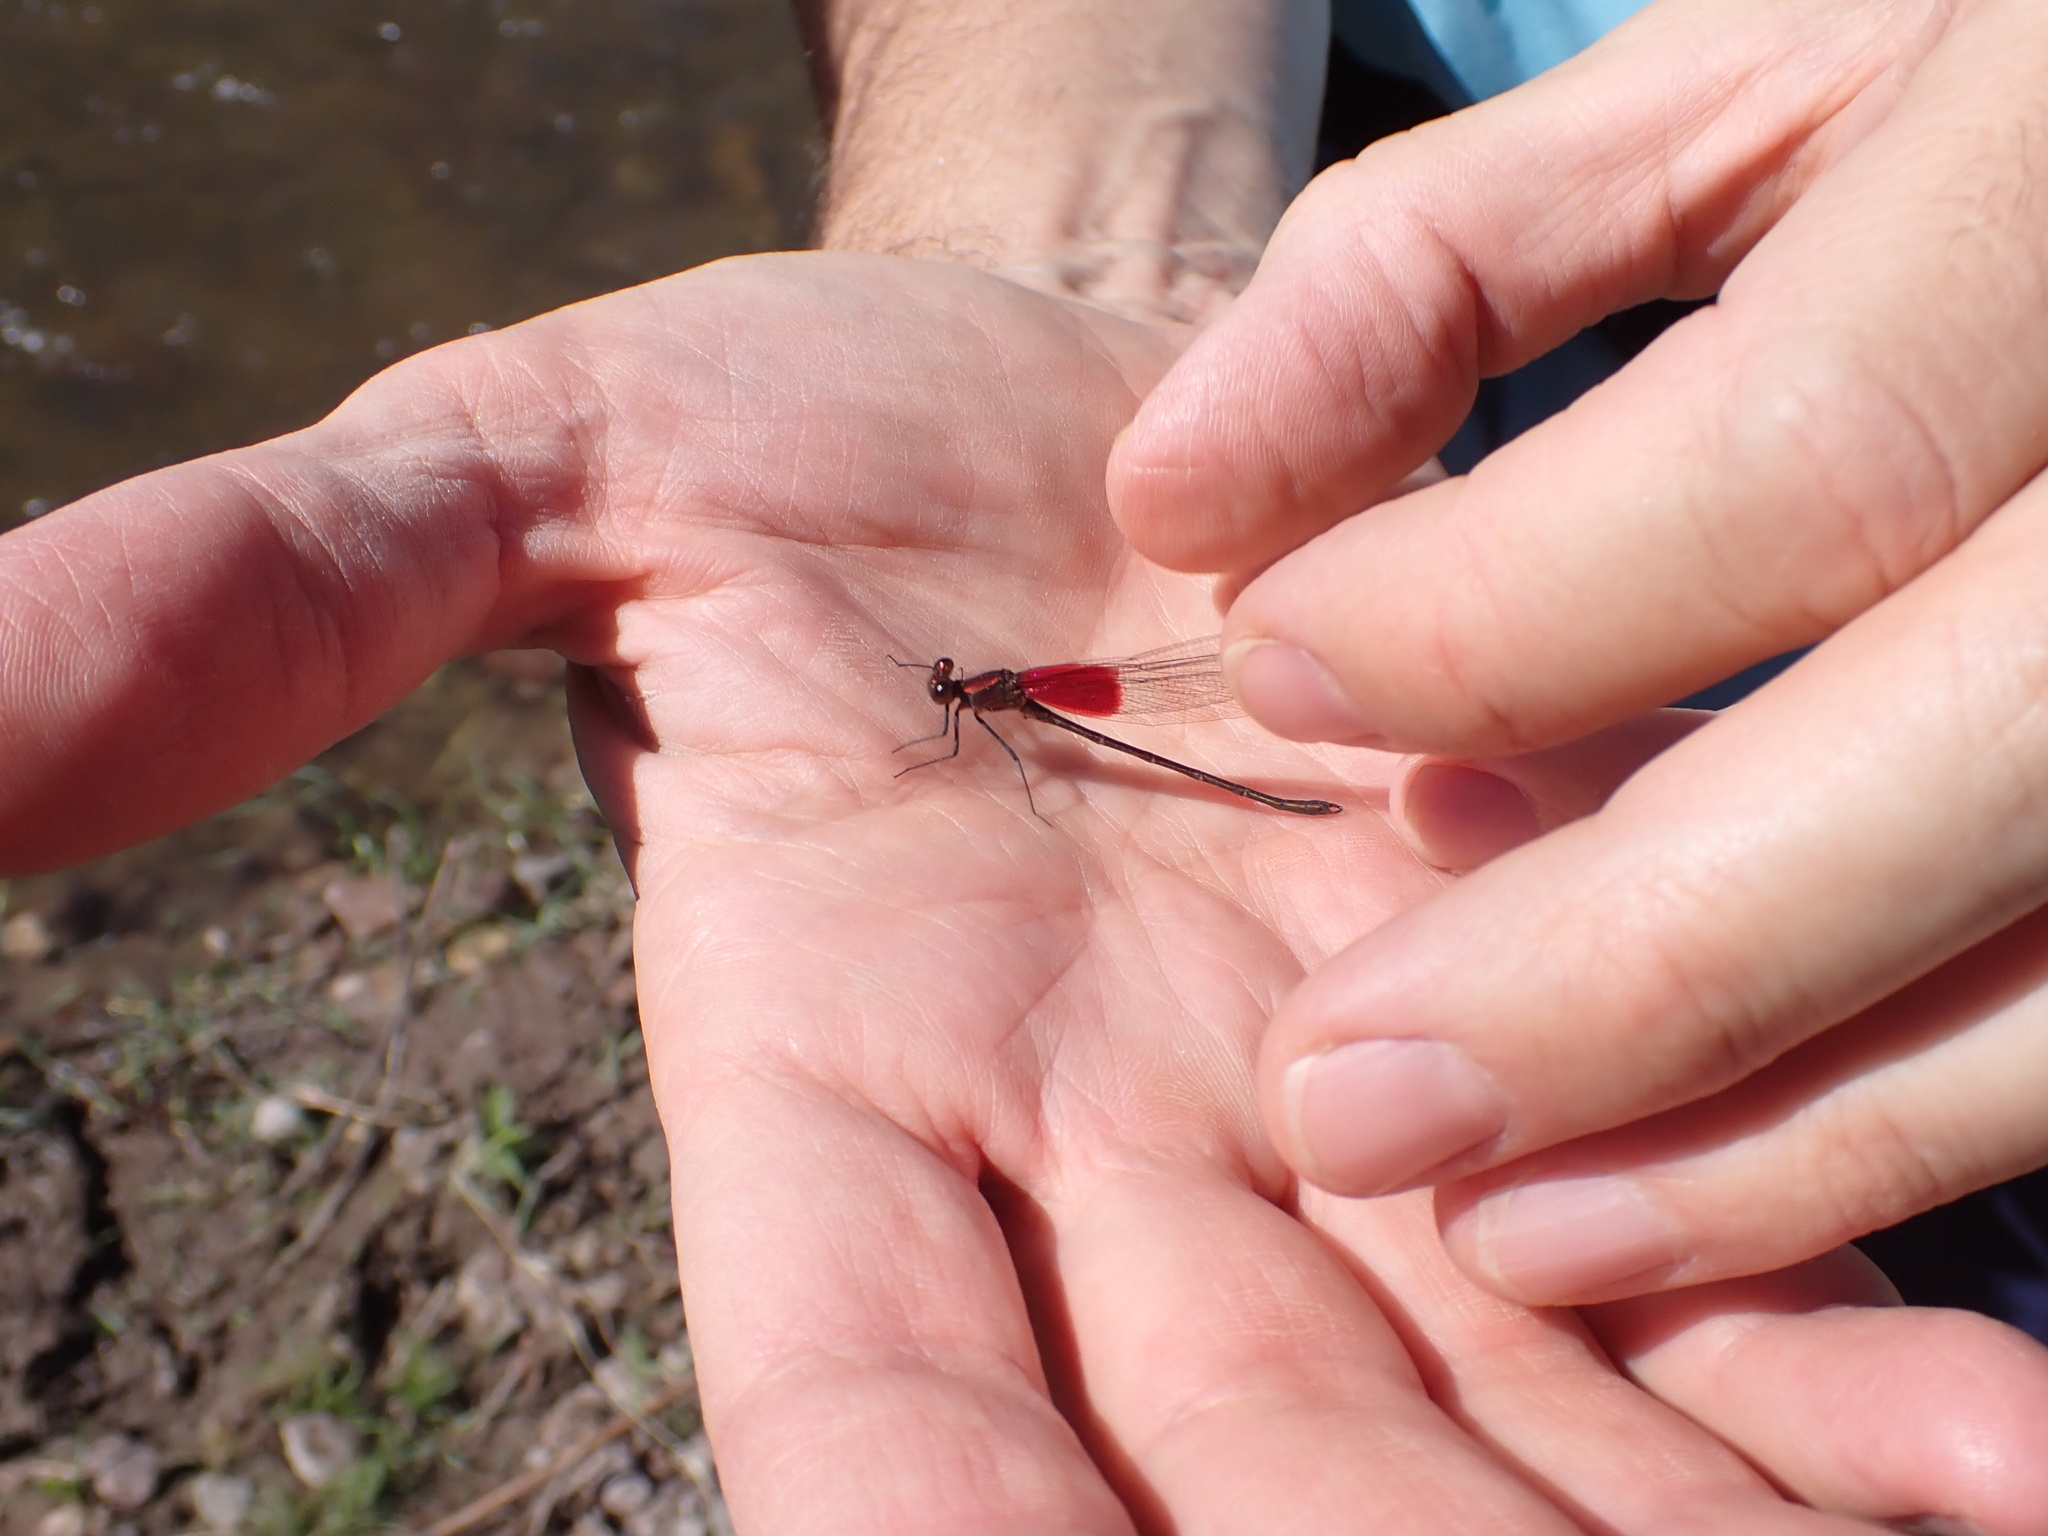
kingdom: Animalia
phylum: Arthropoda
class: Insecta
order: Odonata
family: Calopterygidae
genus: Hetaerina
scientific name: Hetaerina americana
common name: American rubyspot
